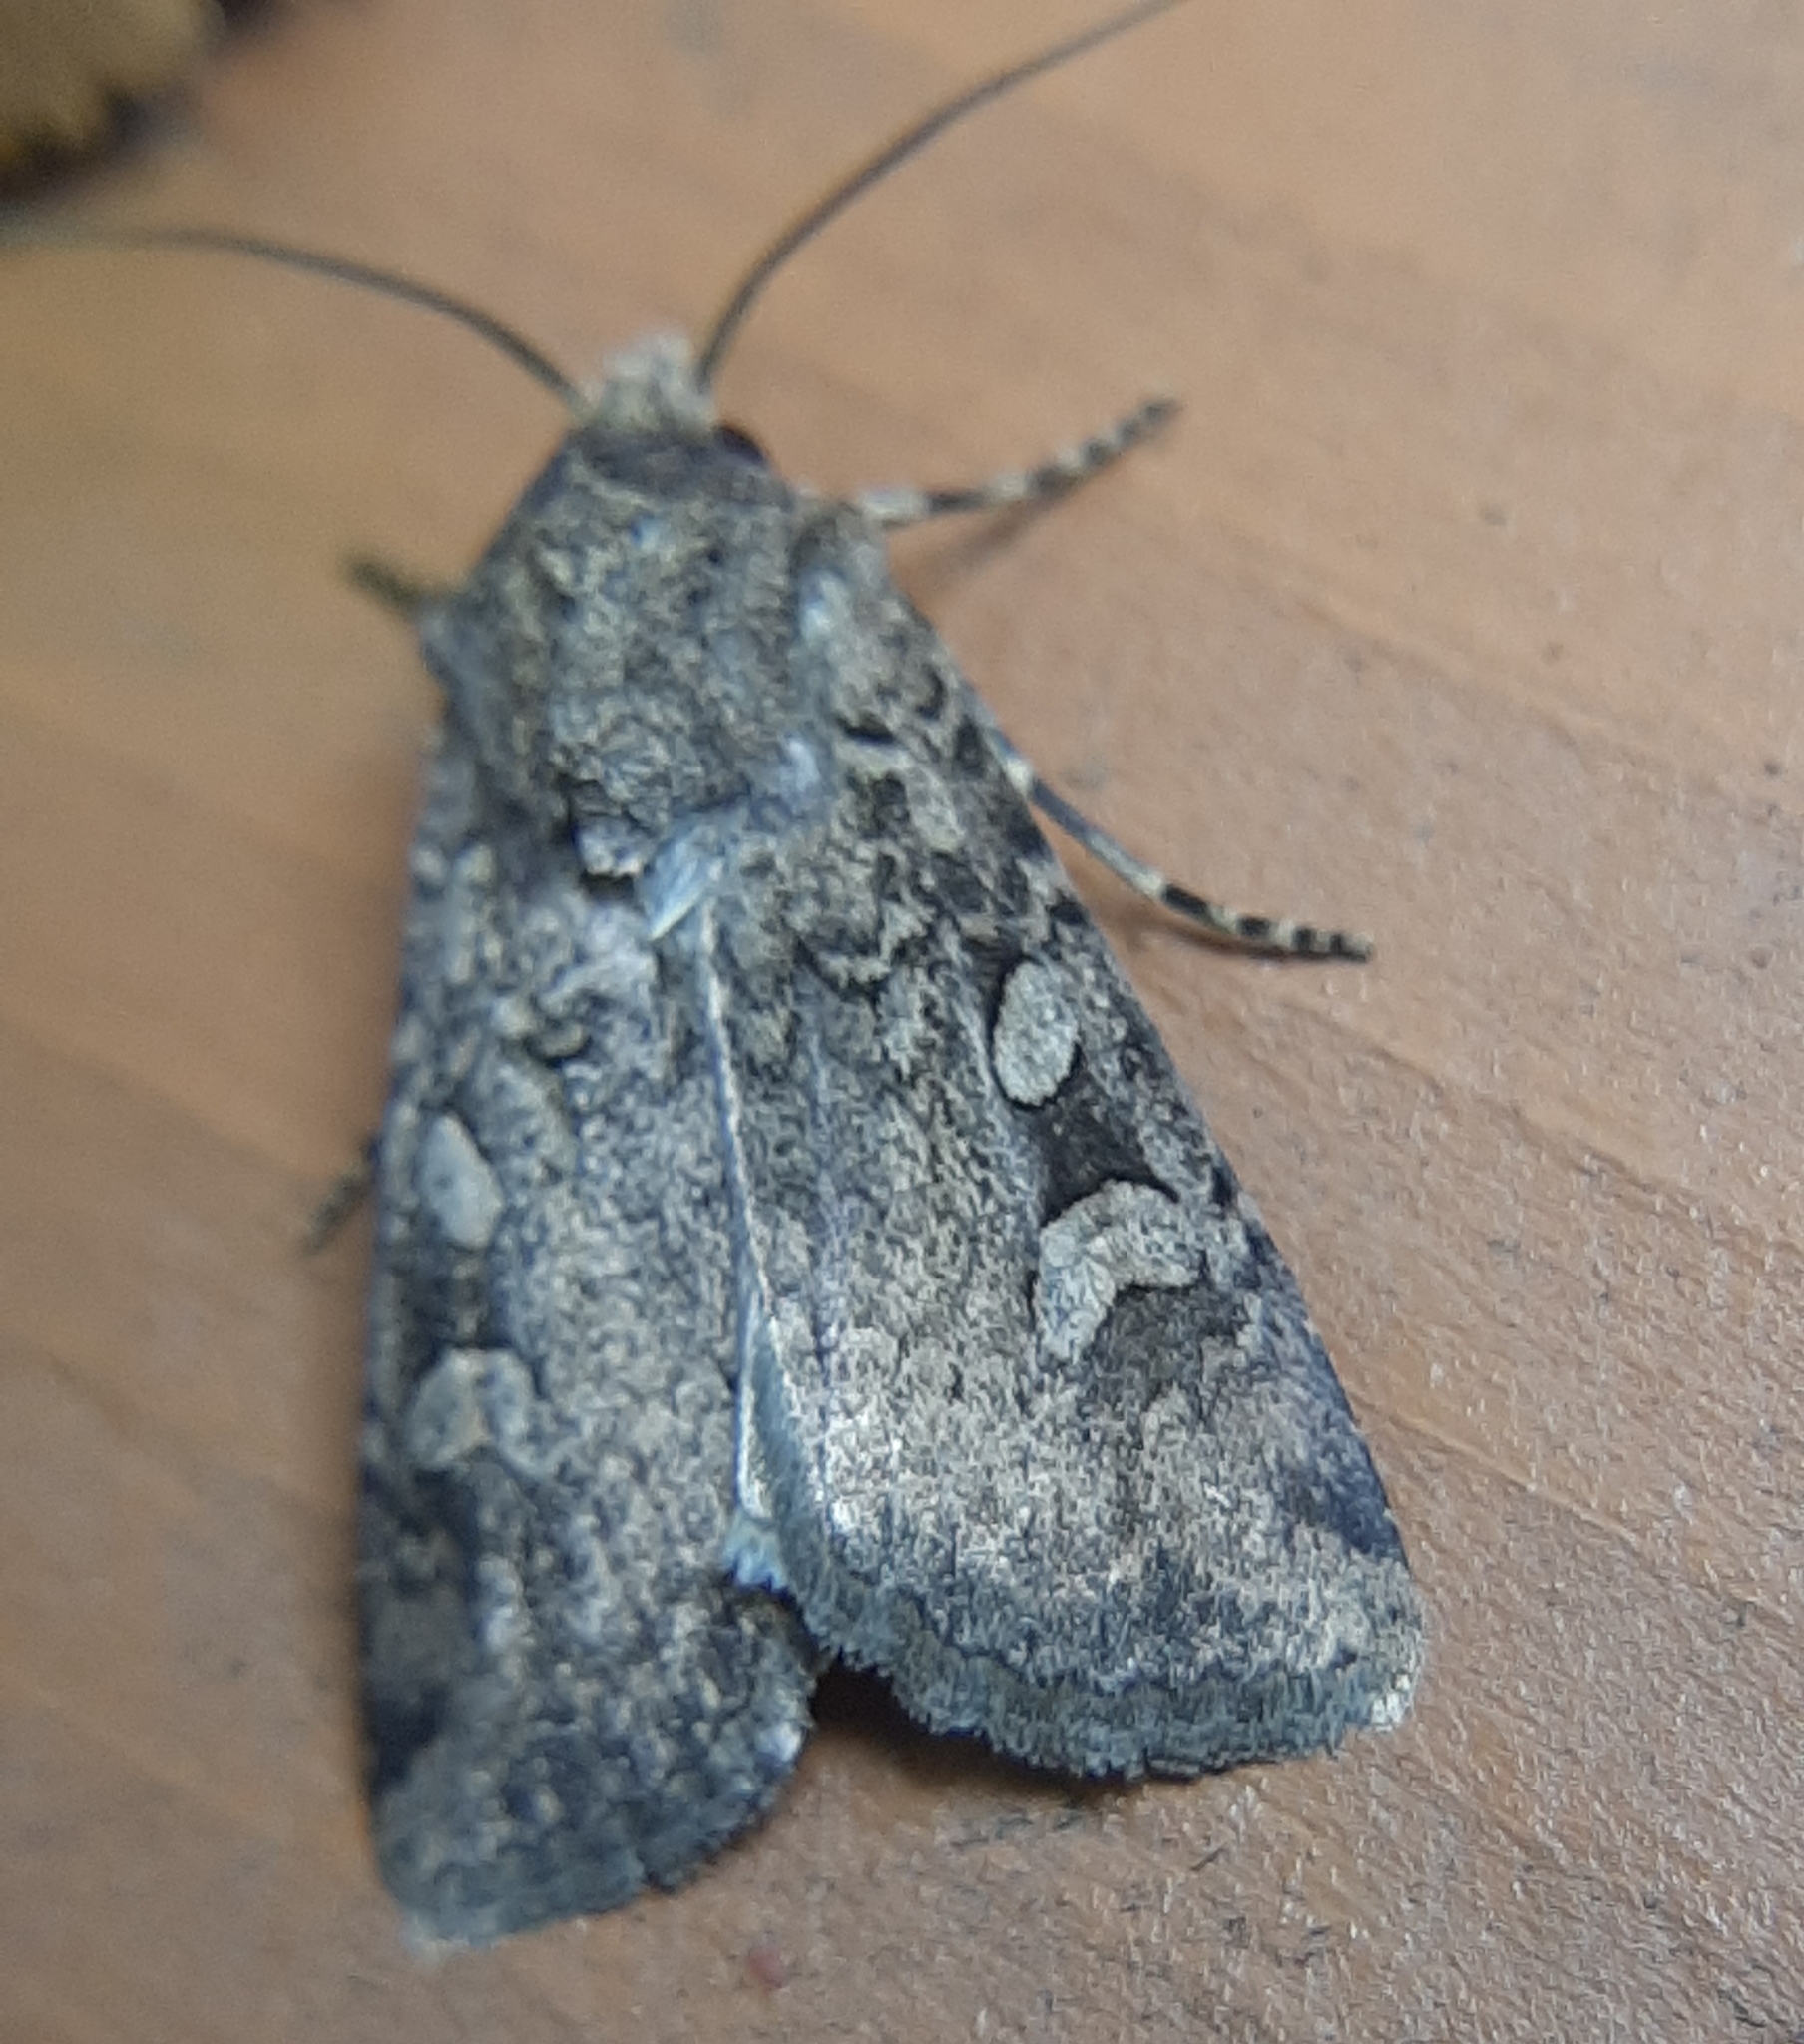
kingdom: Animalia
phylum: Arthropoda
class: Insecta
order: Lepidoptera
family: Noctuidae
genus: Euxoa
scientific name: Euxoa tessellata
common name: Striped cutworm
